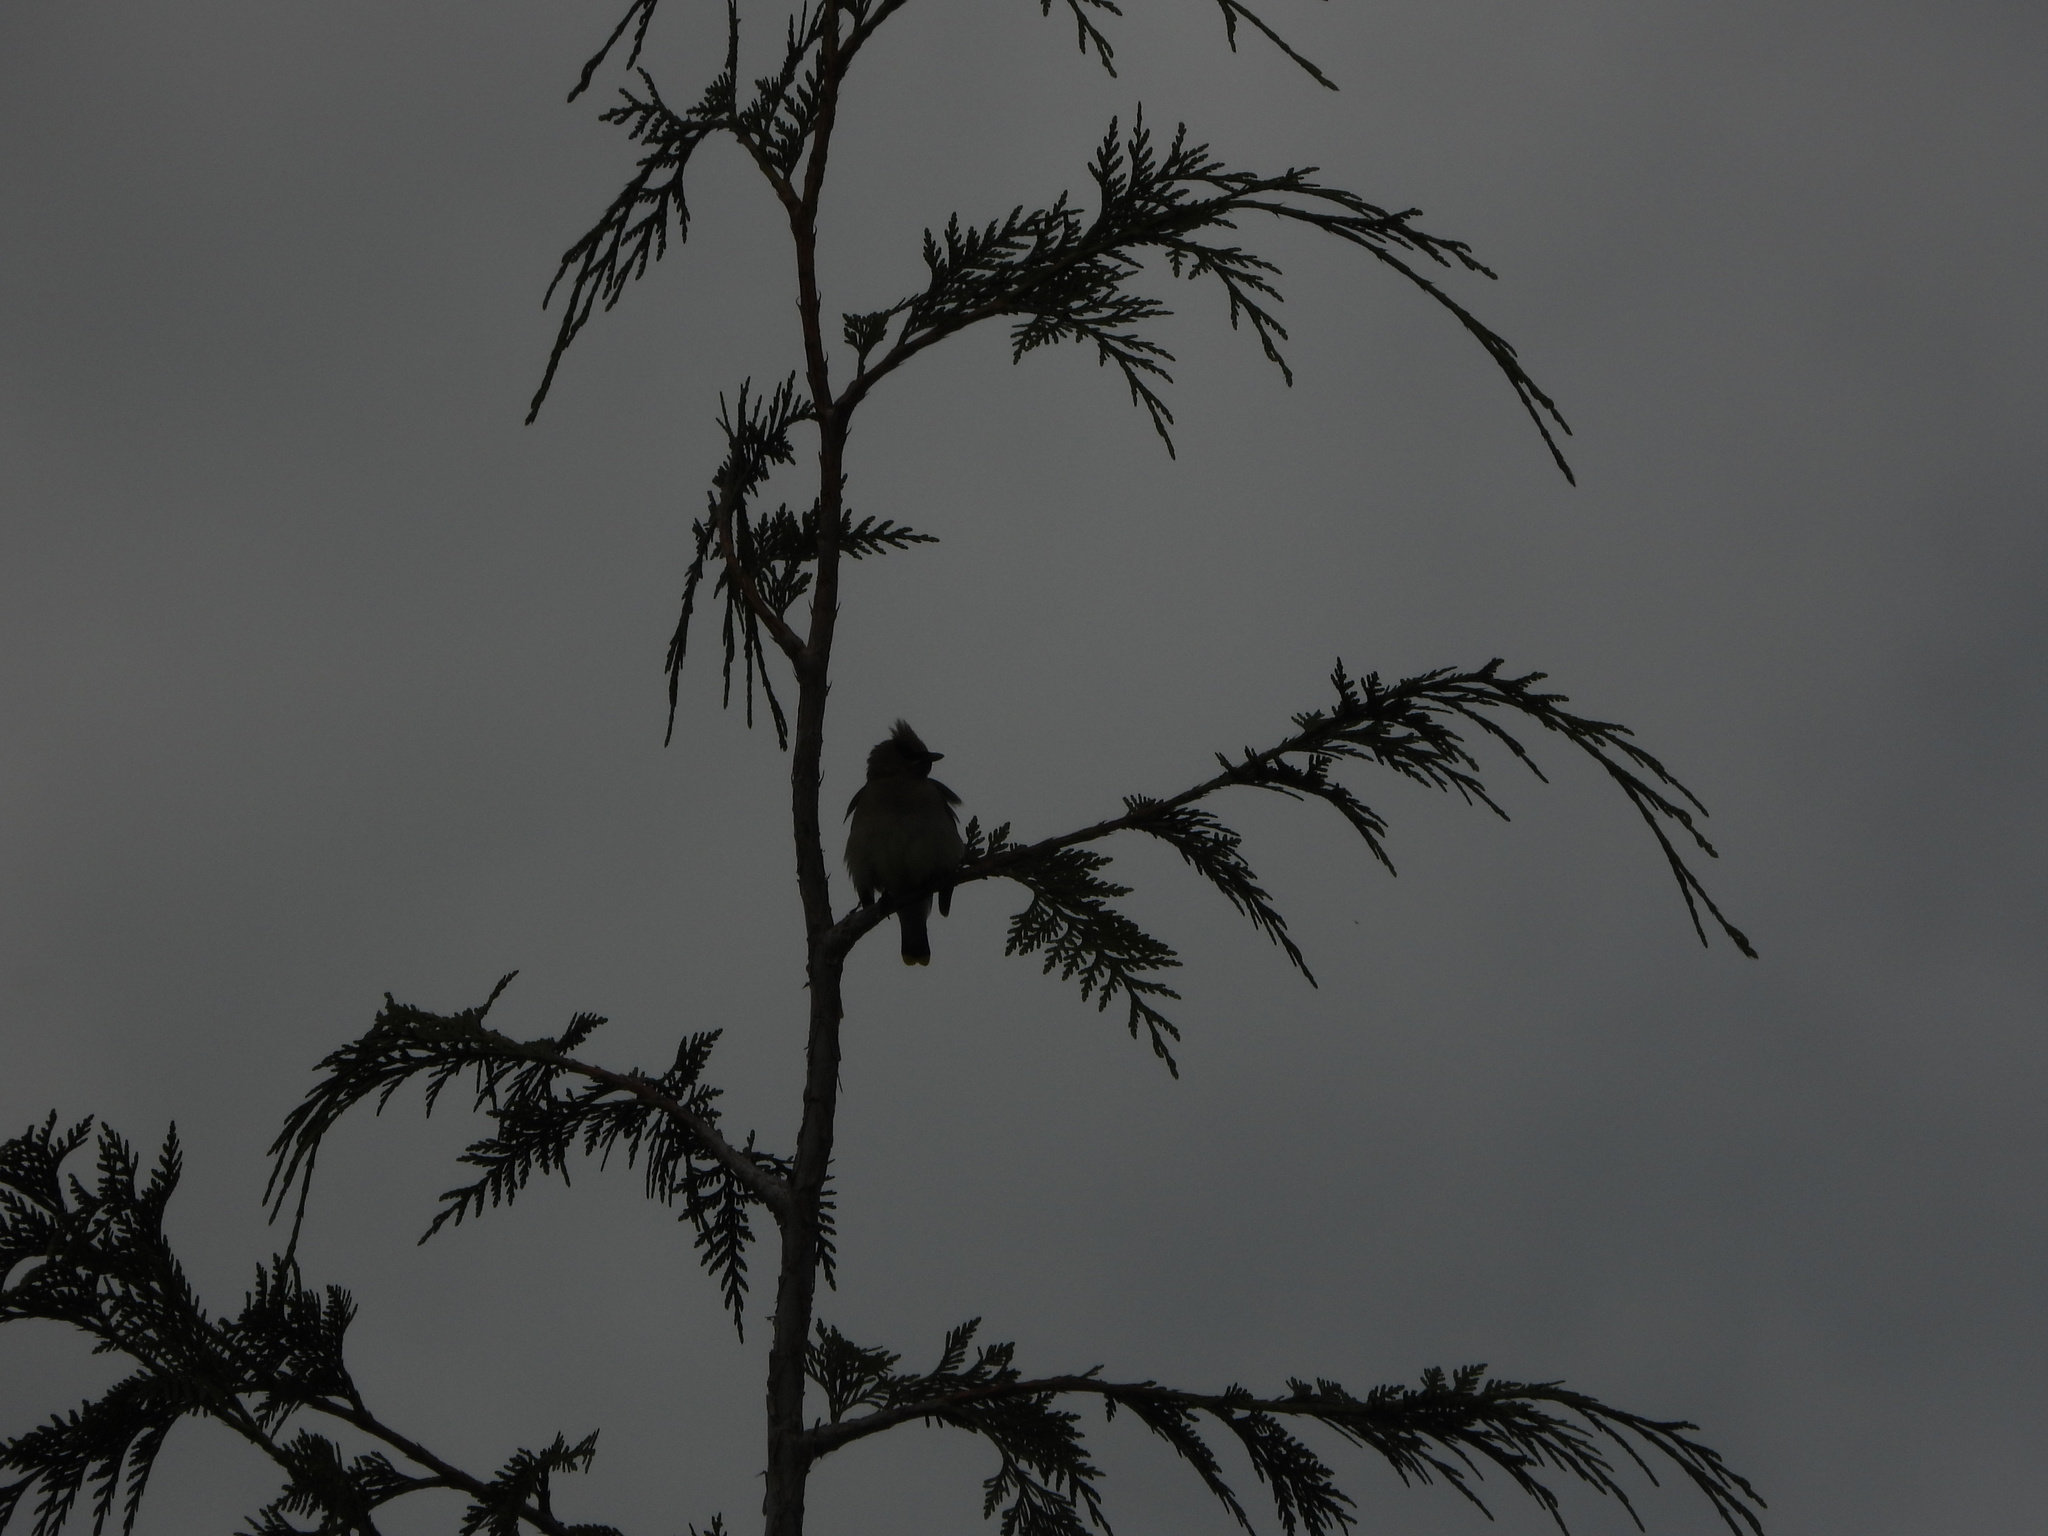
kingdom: Animalia
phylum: Chordata
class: Aves
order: Passeriformes
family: Bombycillidae
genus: Bombycilla
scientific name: Bombycilla cedrorum
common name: Cedar waxwing
